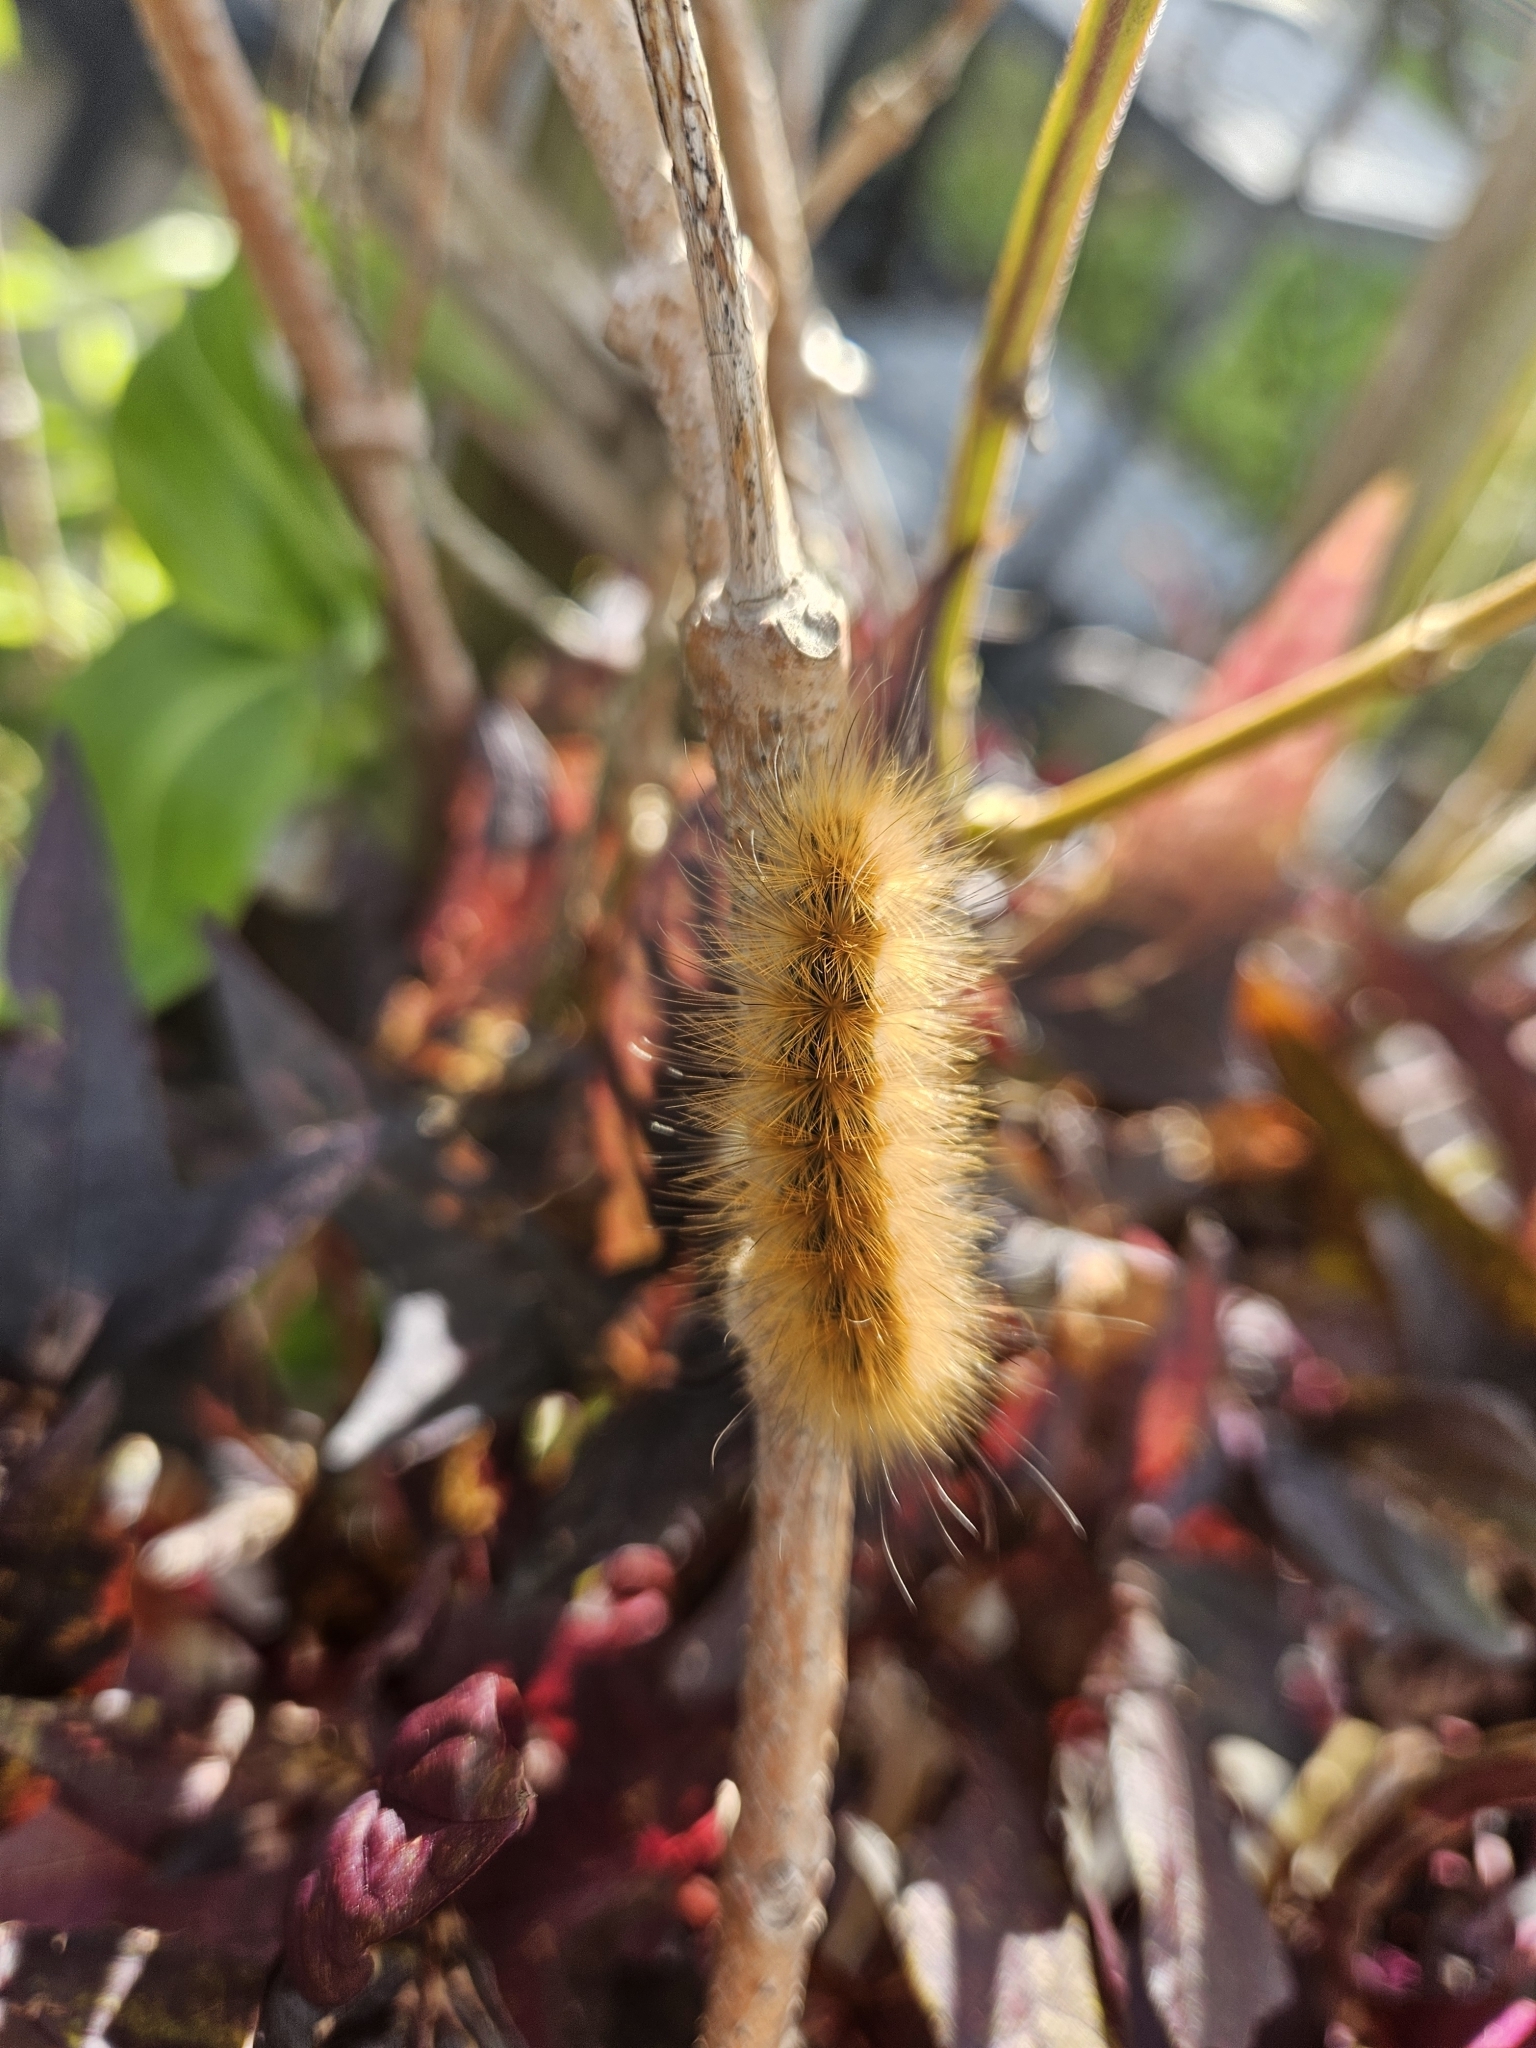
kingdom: Animalia
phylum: Arthropoda
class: Insecta
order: Lepidoptera
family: Erebidae
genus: Spilosoma
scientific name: Spilosoma virginica
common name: Virginia tiger moth
